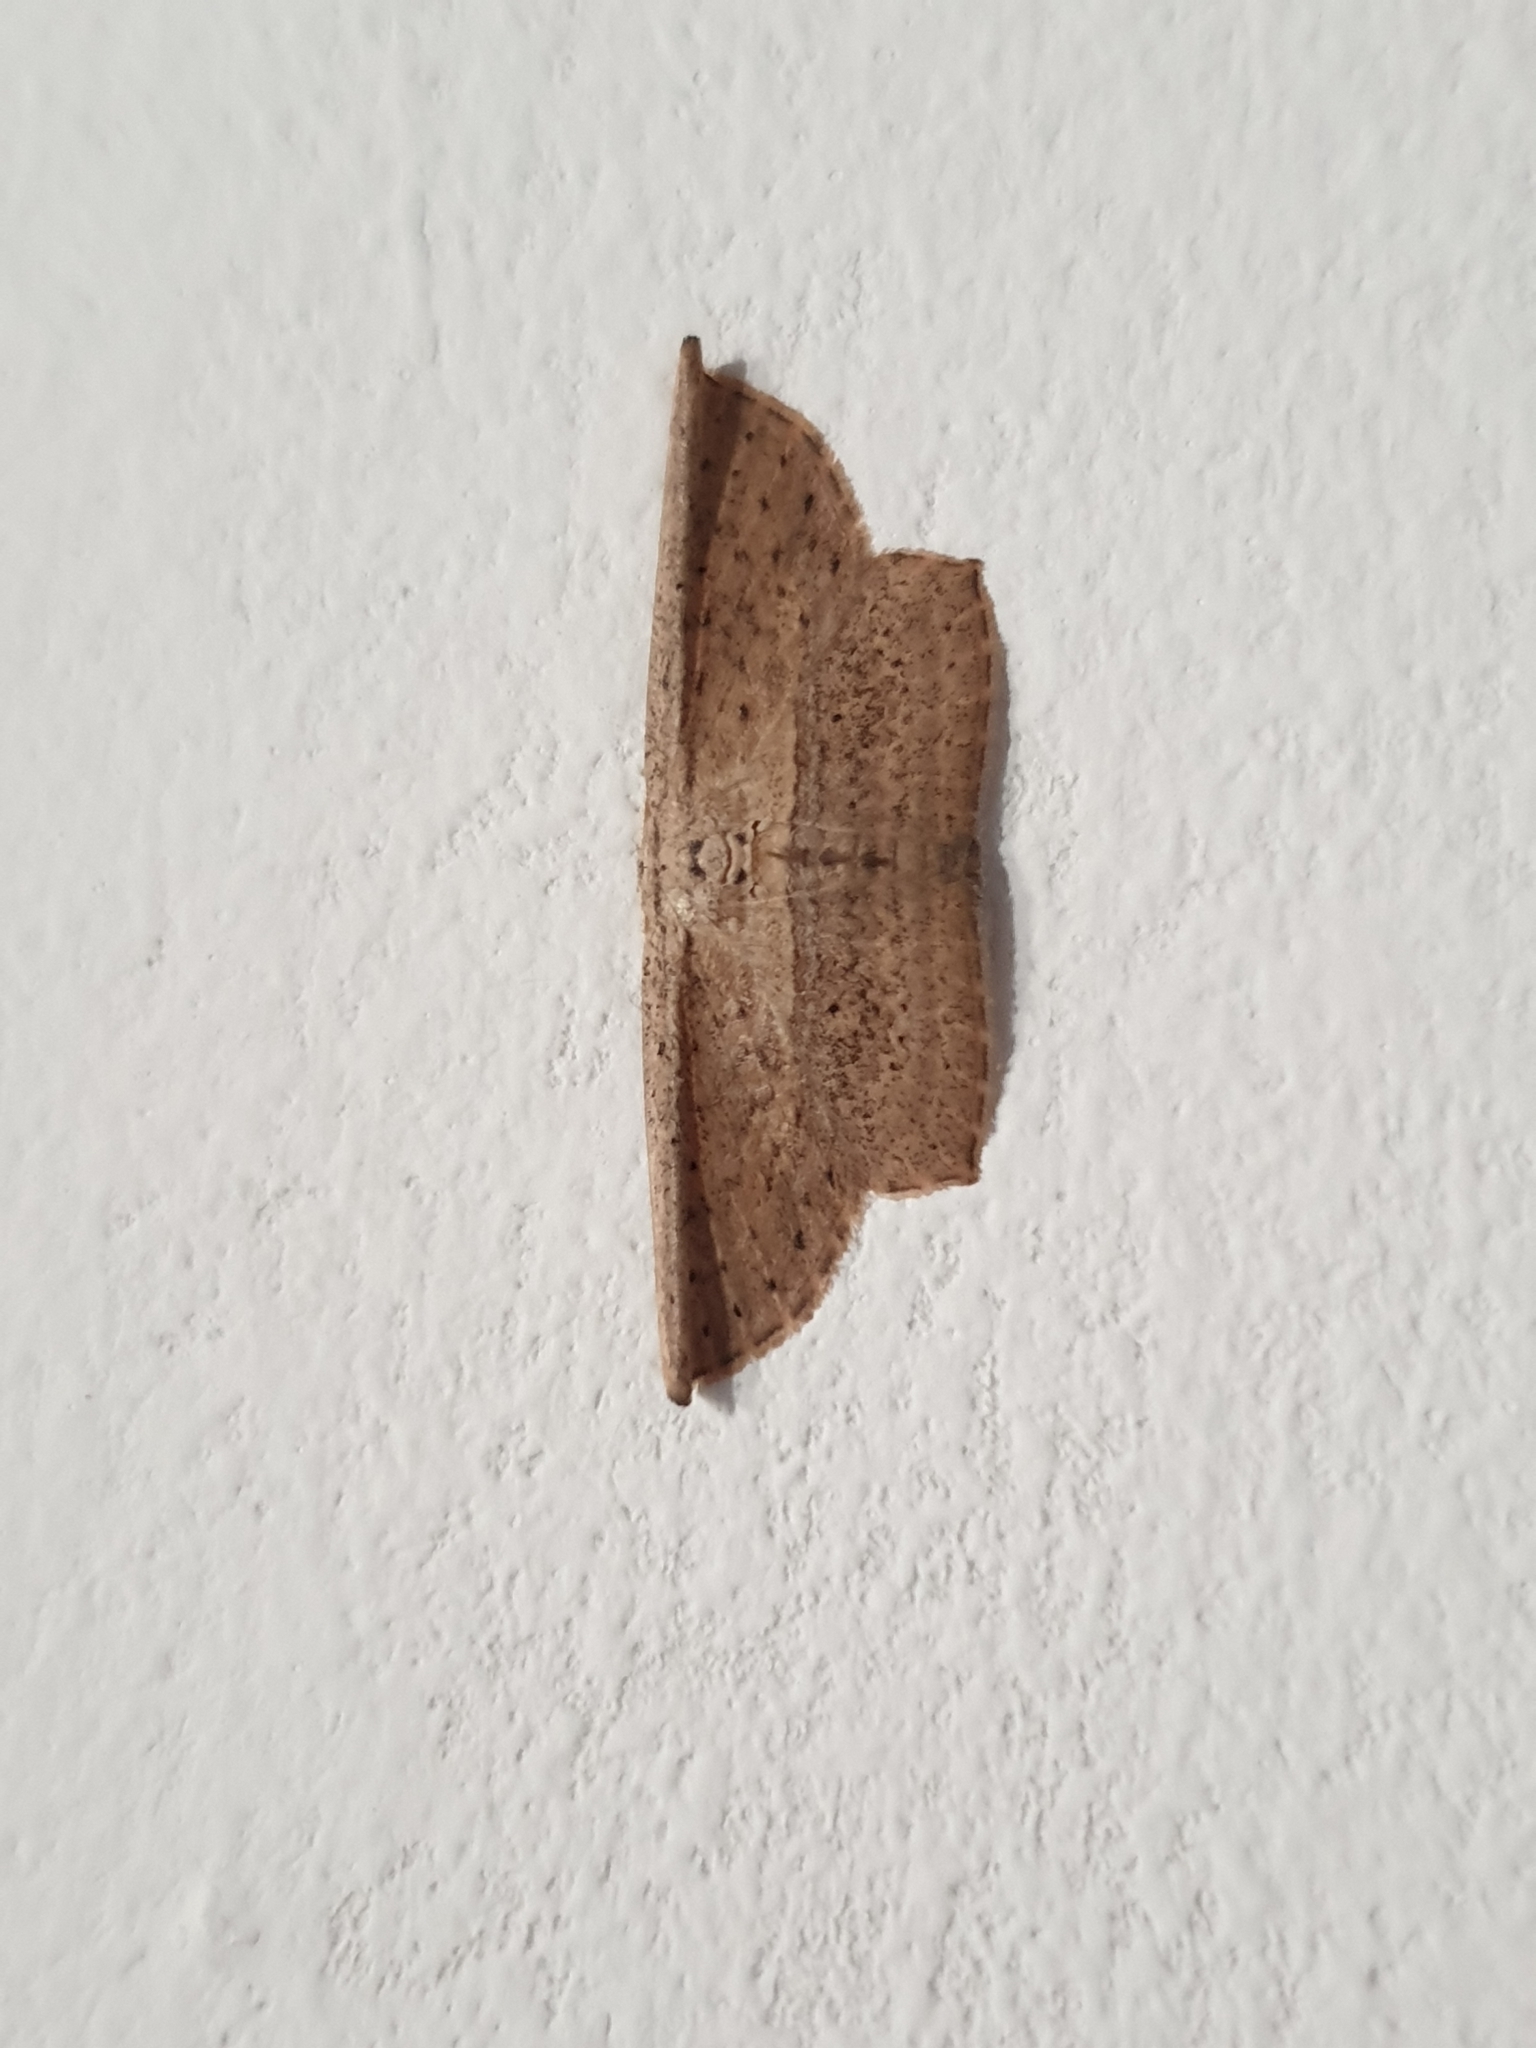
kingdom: Animalia
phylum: Arthropoda
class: Insecta
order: Lepidoptera
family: Drepanidae
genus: Phalacra
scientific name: Phalacra vidhisara
